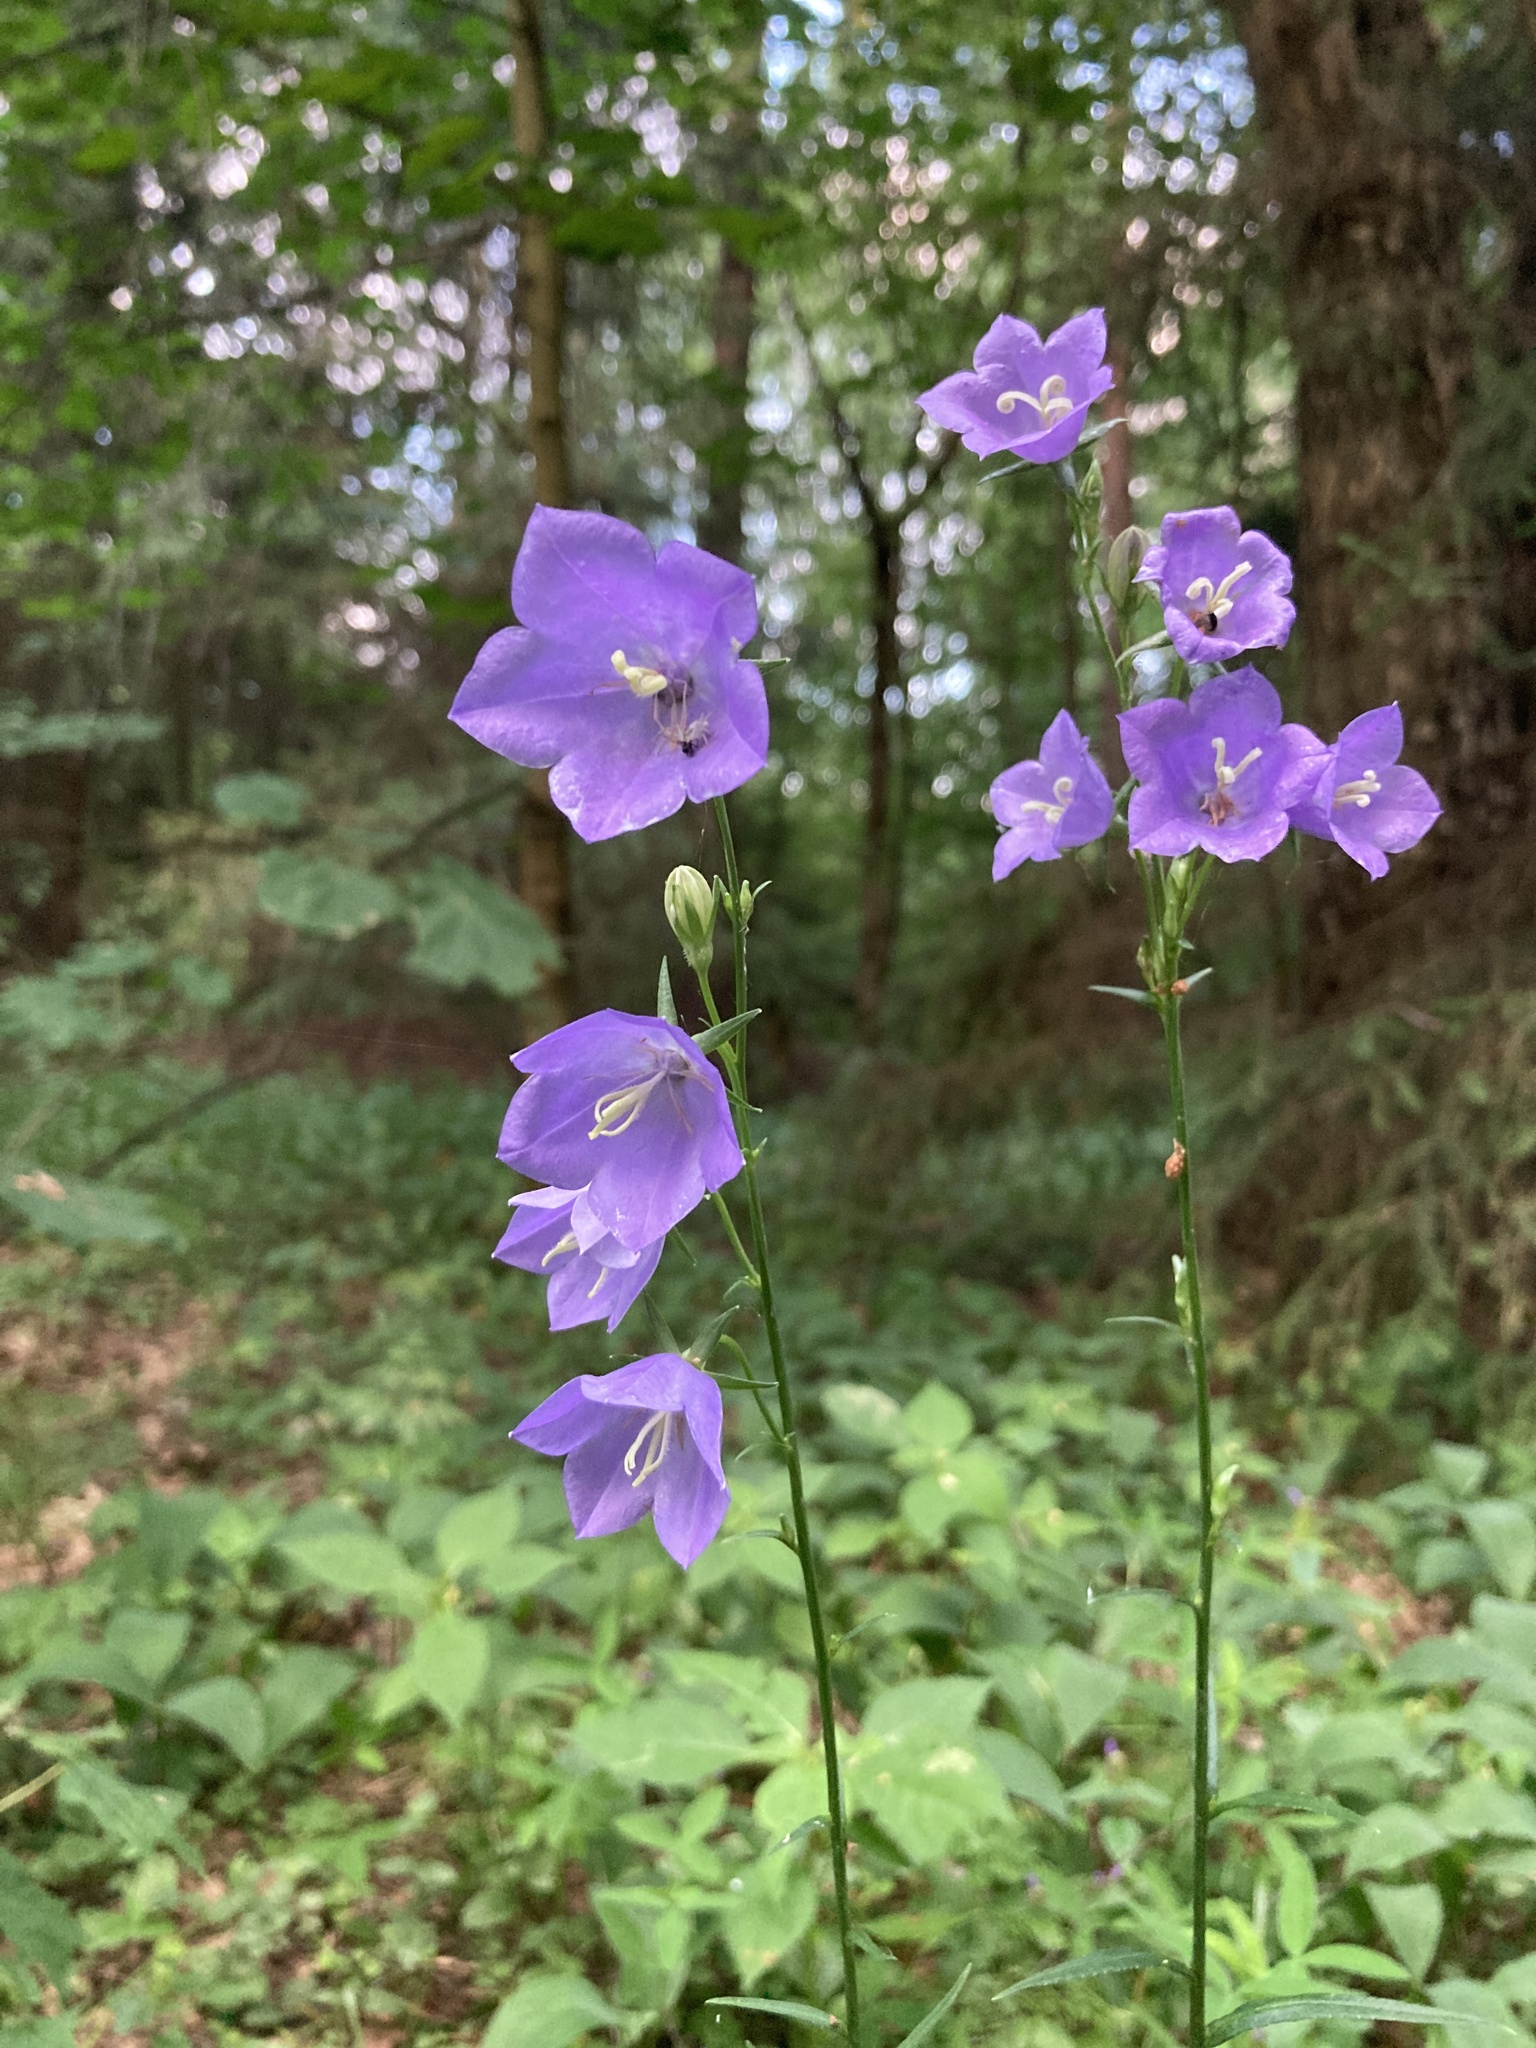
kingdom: Plantae
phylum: Tracheophyta
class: Magnoliopsida
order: Asterales
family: Campanulaceae
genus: Campanula
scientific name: Campanula persicifolia
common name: Peach-leaved bellflower
